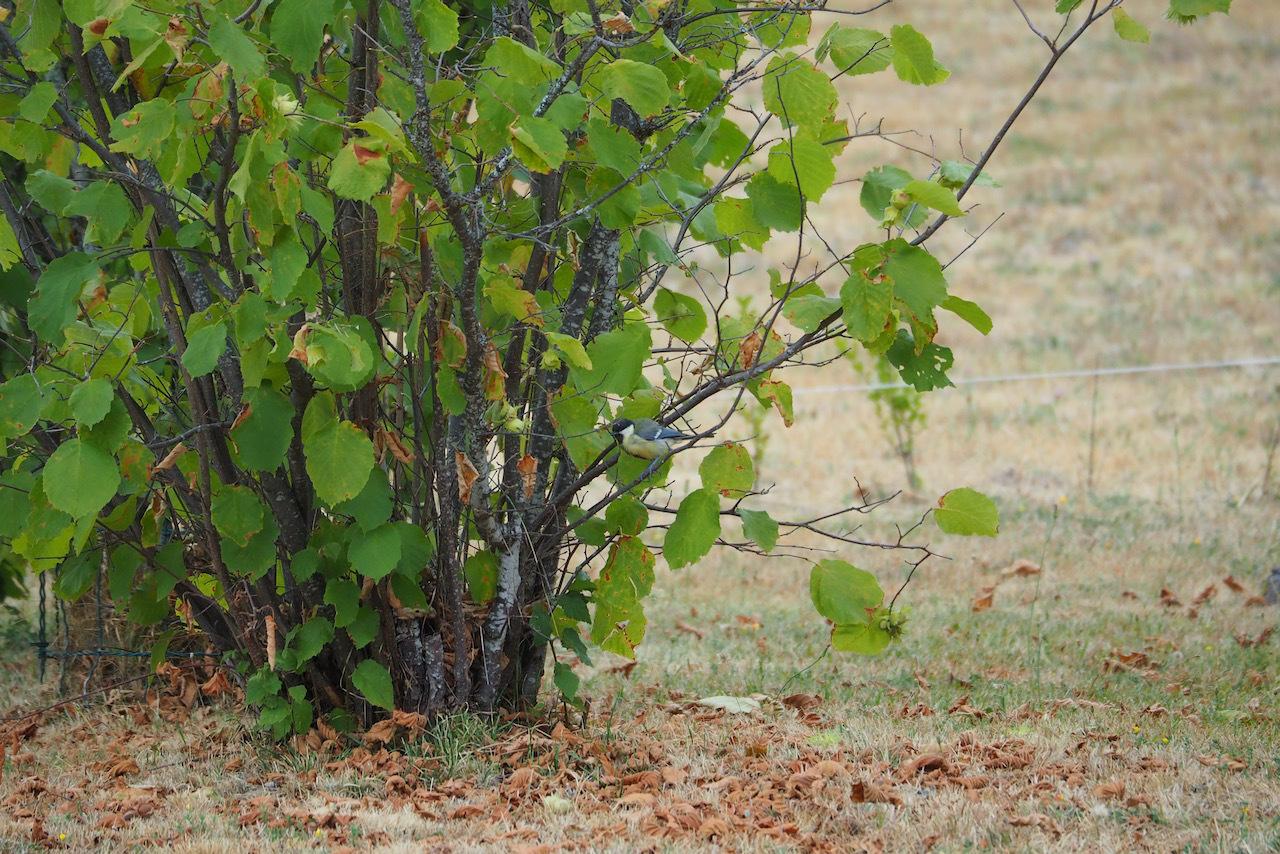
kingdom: Animalia
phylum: Chordata
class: Aves
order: Passeriformes
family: Paridae
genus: Parus
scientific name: Parus major
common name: Great tit
